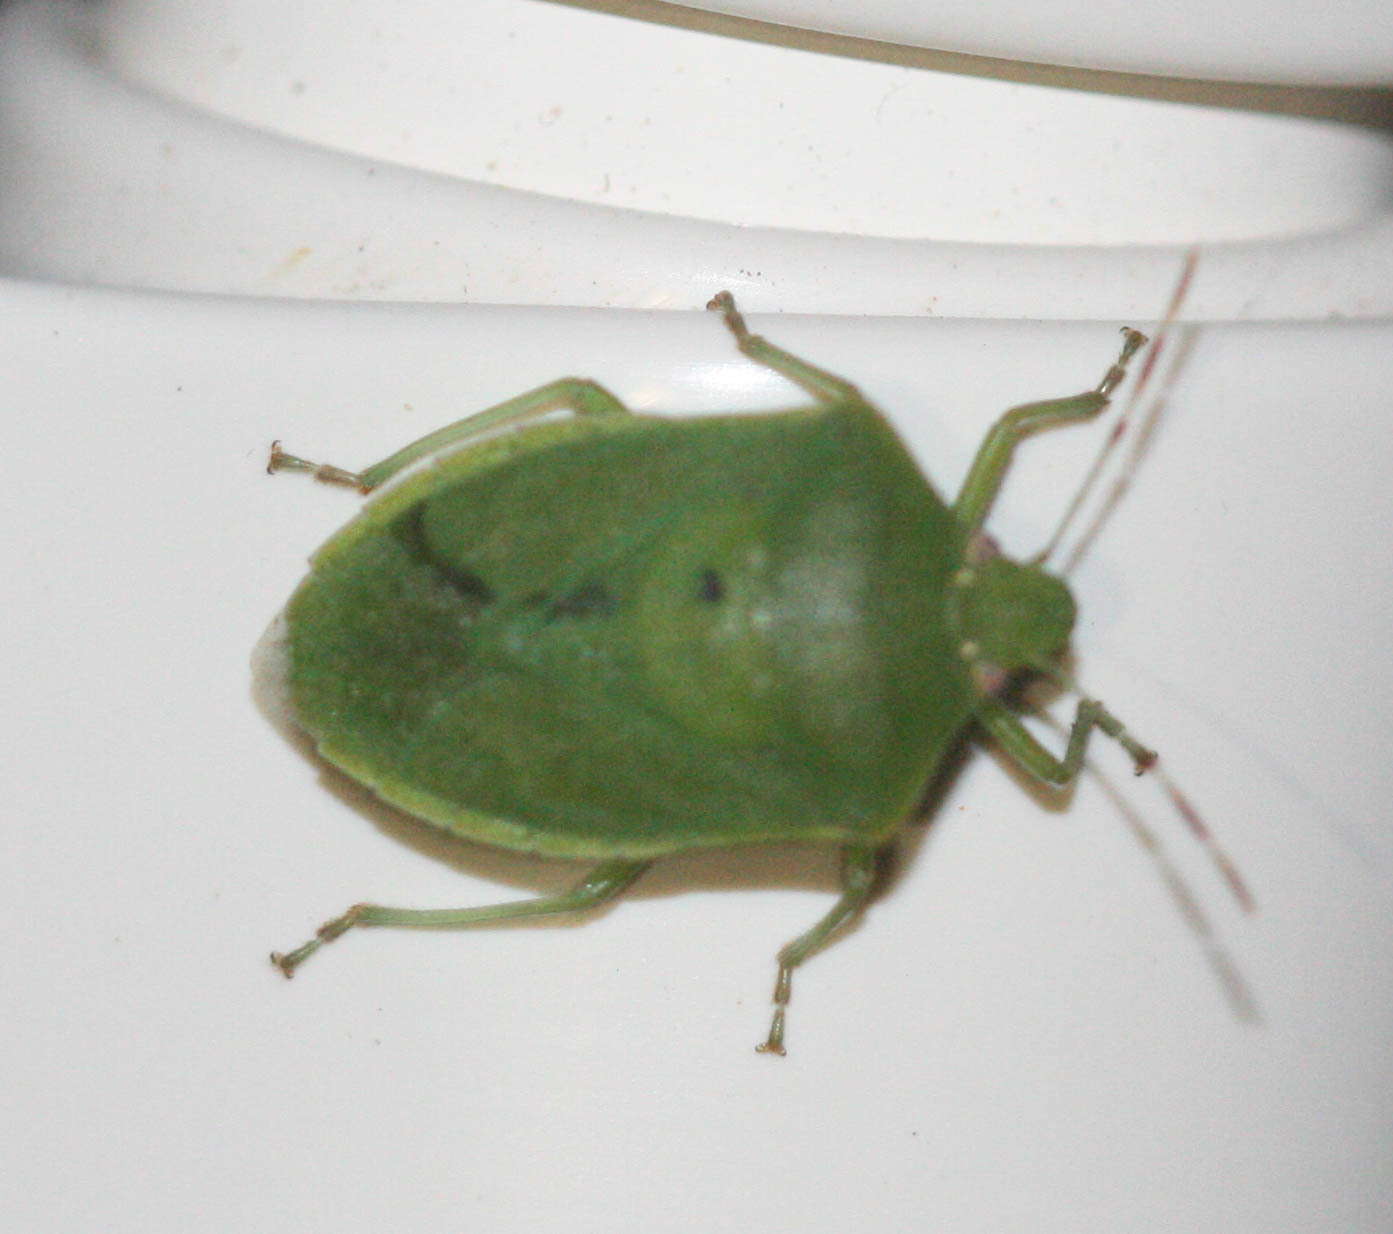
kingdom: Animalia
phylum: Arthropoda
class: Insecta
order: Hemiptera
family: Pentatomidae
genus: Nezara
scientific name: Nezara viridula
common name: Southern green stink bug
